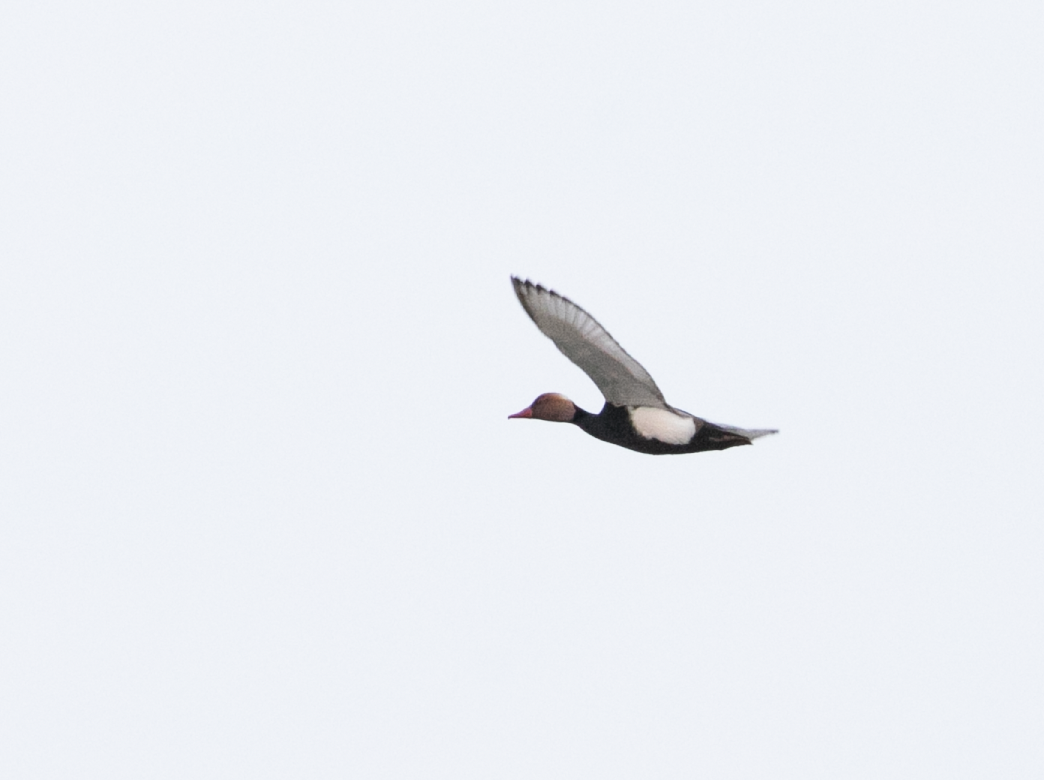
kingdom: Animalia
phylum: Chordata
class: Aves
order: Anseriformes
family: Anatidae
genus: Netta
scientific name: Netta rufina
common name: Red-crested pochard
